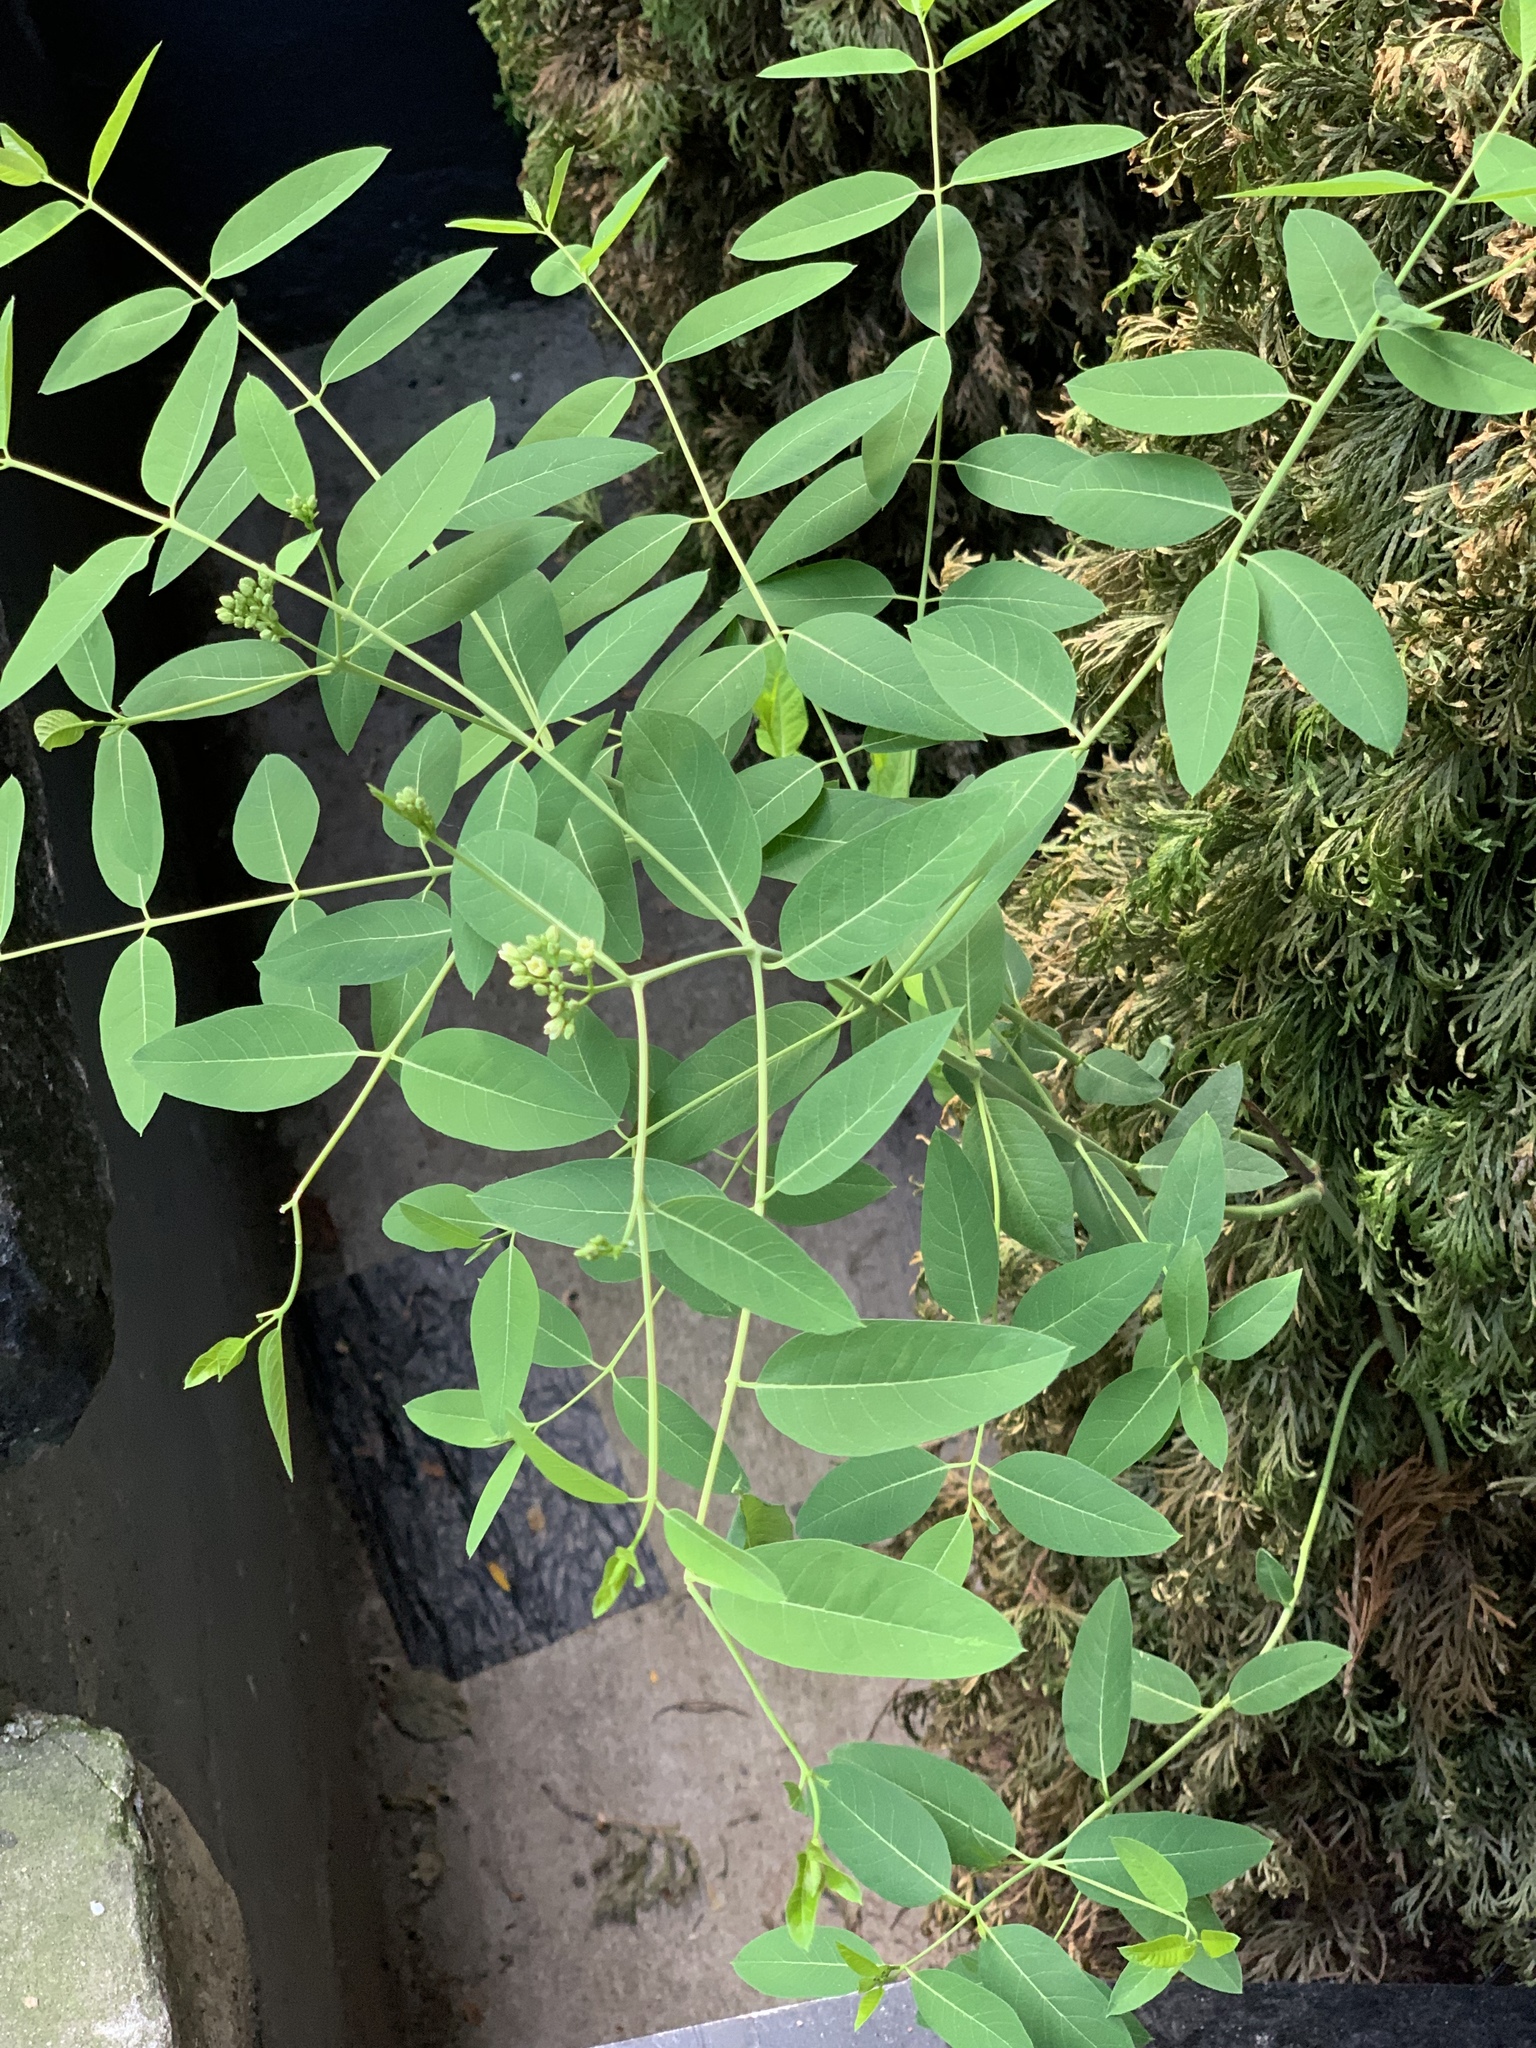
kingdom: Plantae
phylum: Tracheophyta
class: Magnoliopsida
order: Gentianales
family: Apocynaceae
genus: Apocynum
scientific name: Apocynum cannabinum
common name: Hemp dogbane
